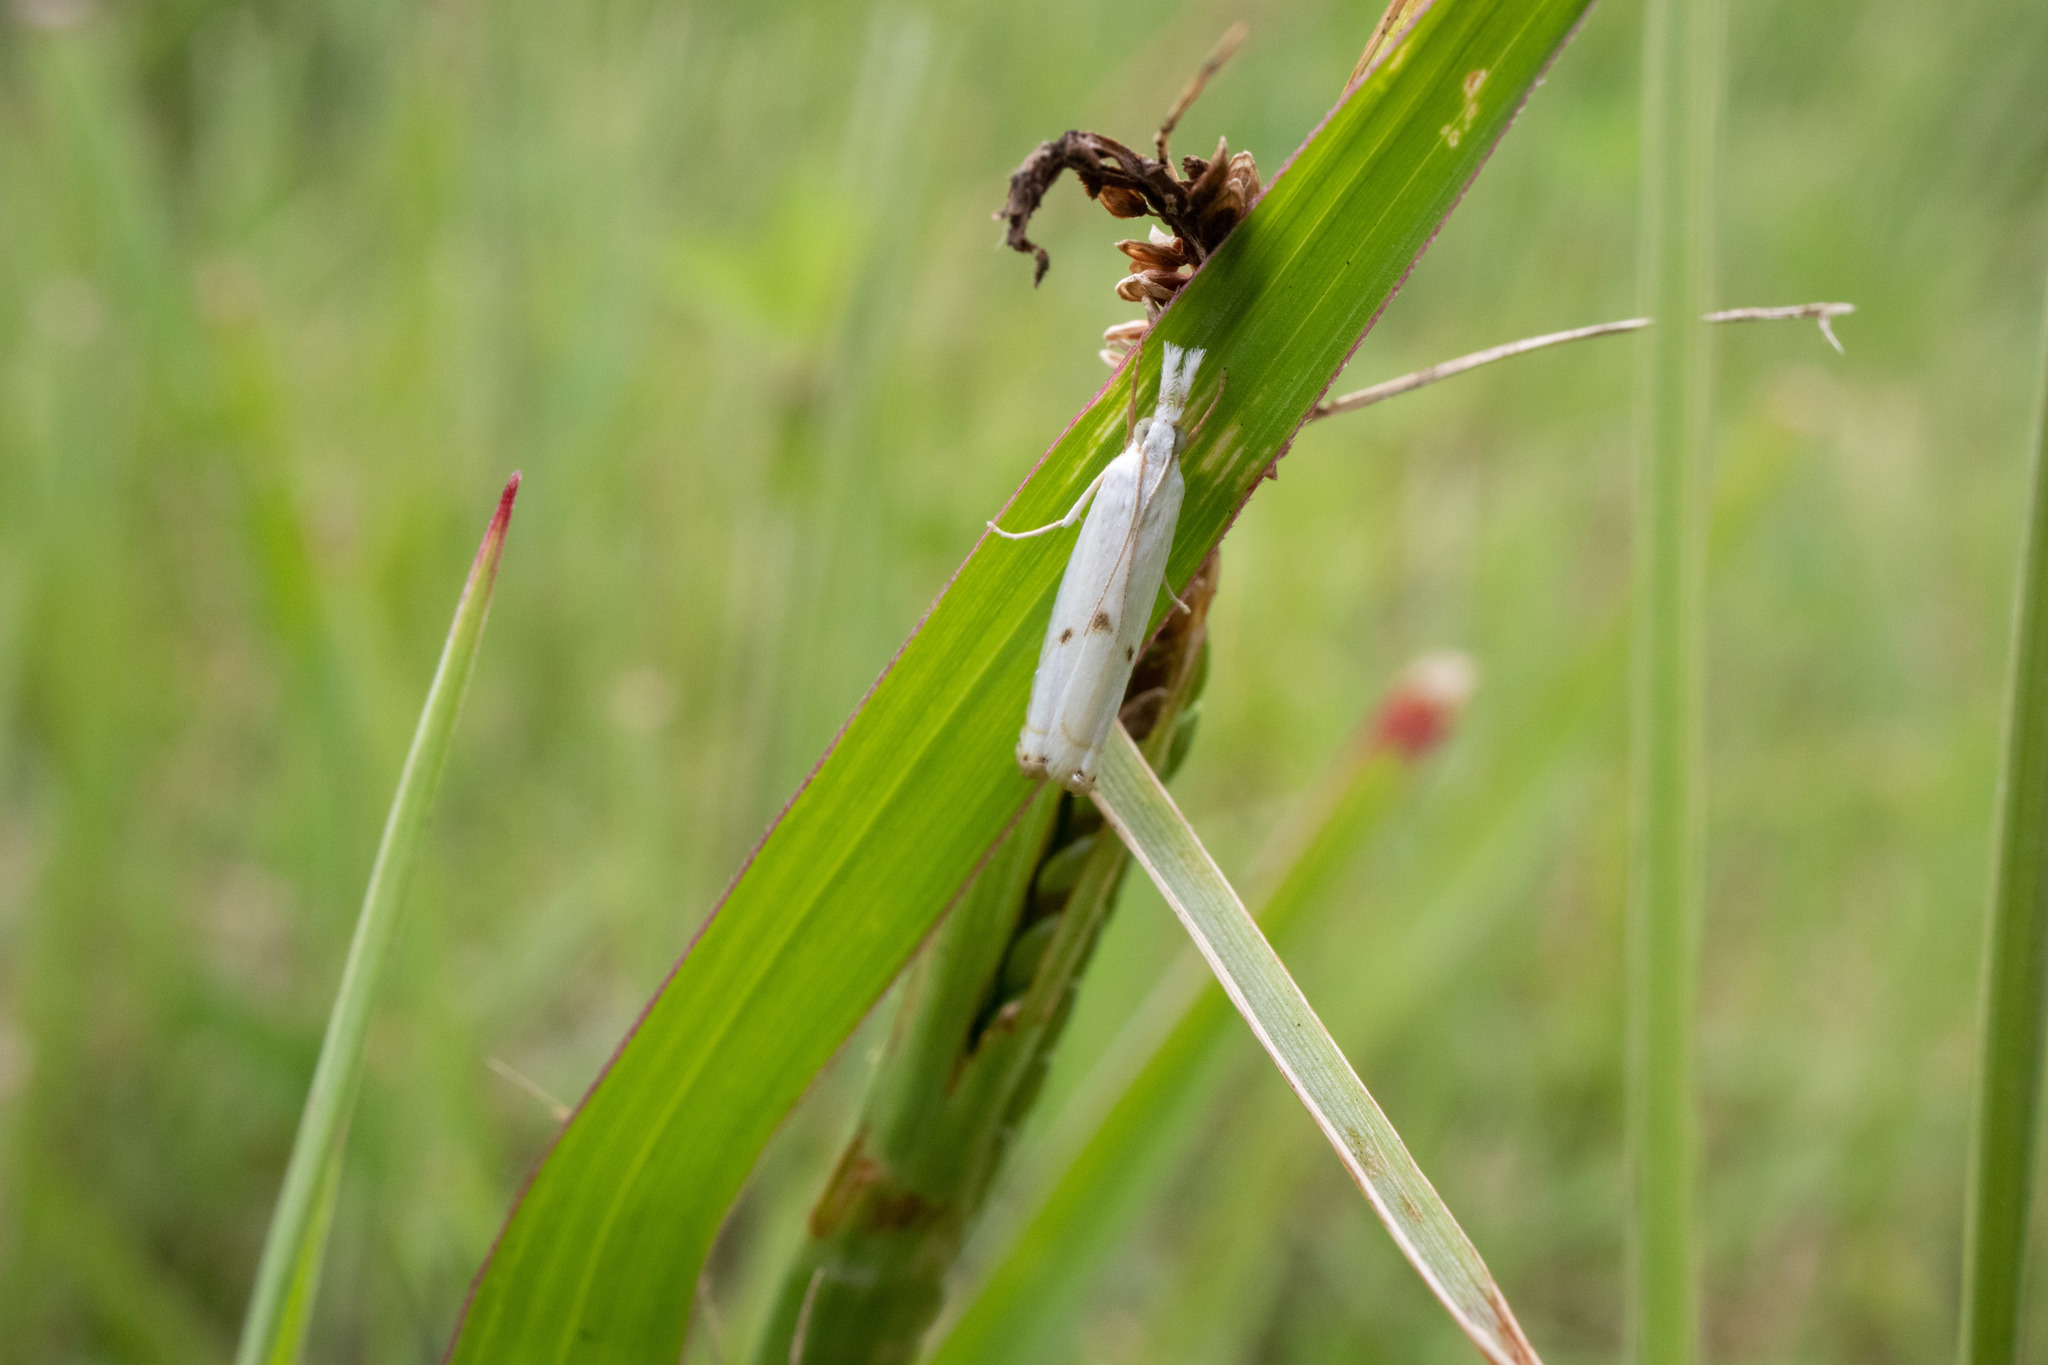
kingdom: Animalia
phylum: Arthropoda
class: Insecta
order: Lepidoptera
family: Crambidae
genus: Microcrambus
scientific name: Microcrambus biguttellus
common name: Gold-stripe grass-veneer moth
